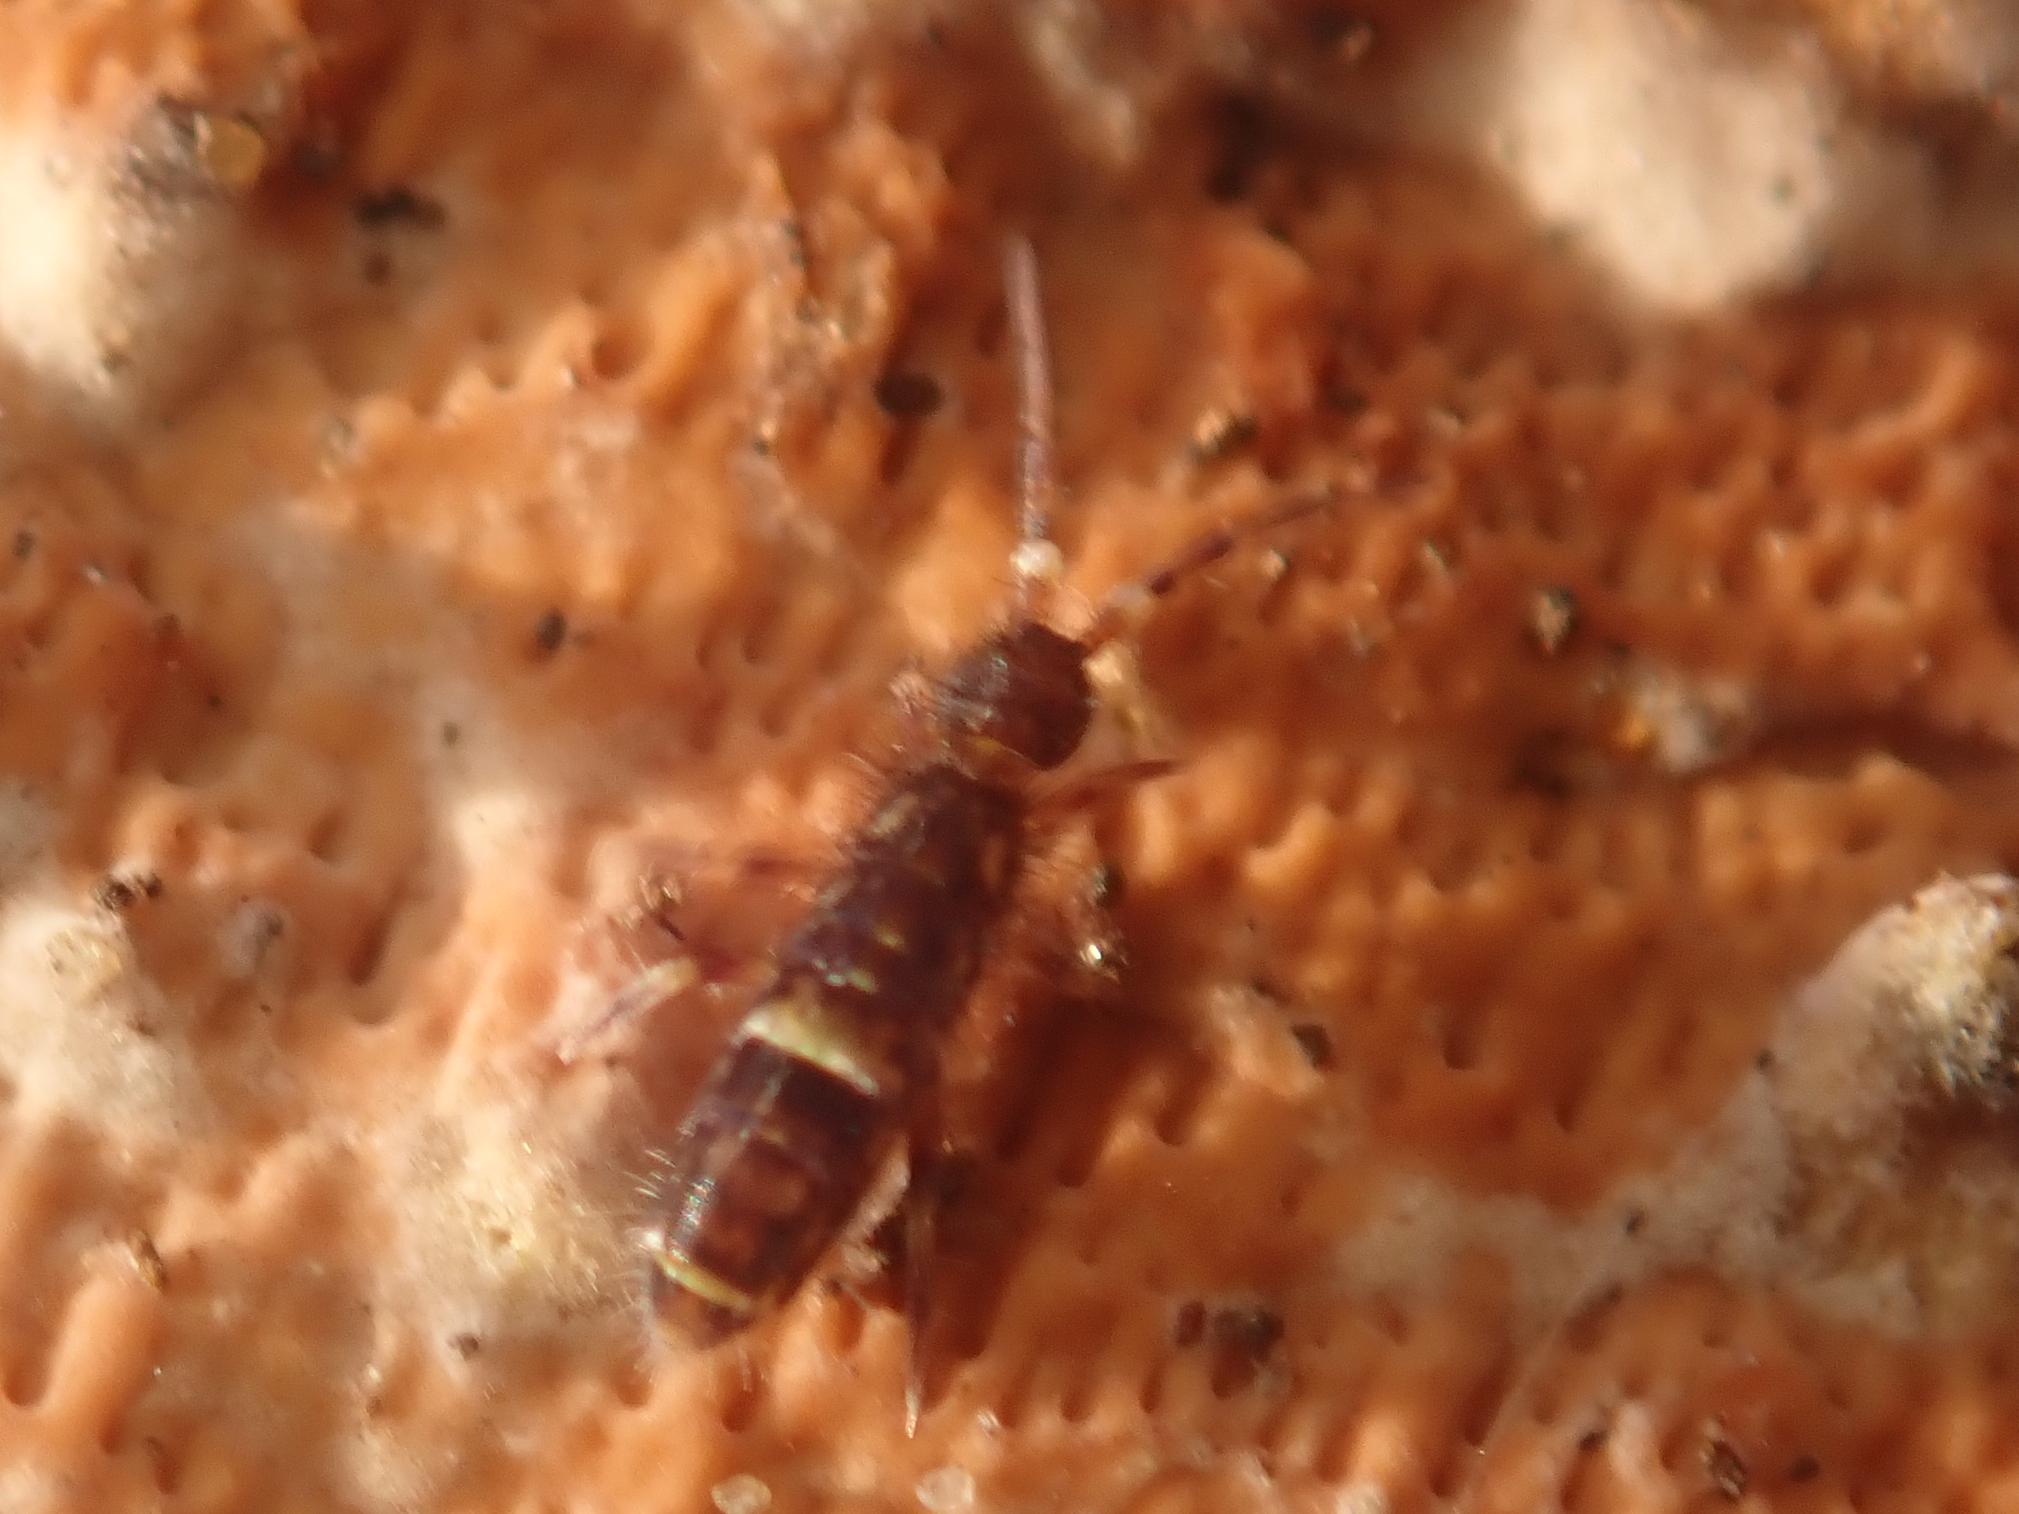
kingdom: Animalia
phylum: Arthropoda
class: Collembola
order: Entomobryomorpha
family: Orchesellidae
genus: Orchesella
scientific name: Orchesella cincta
